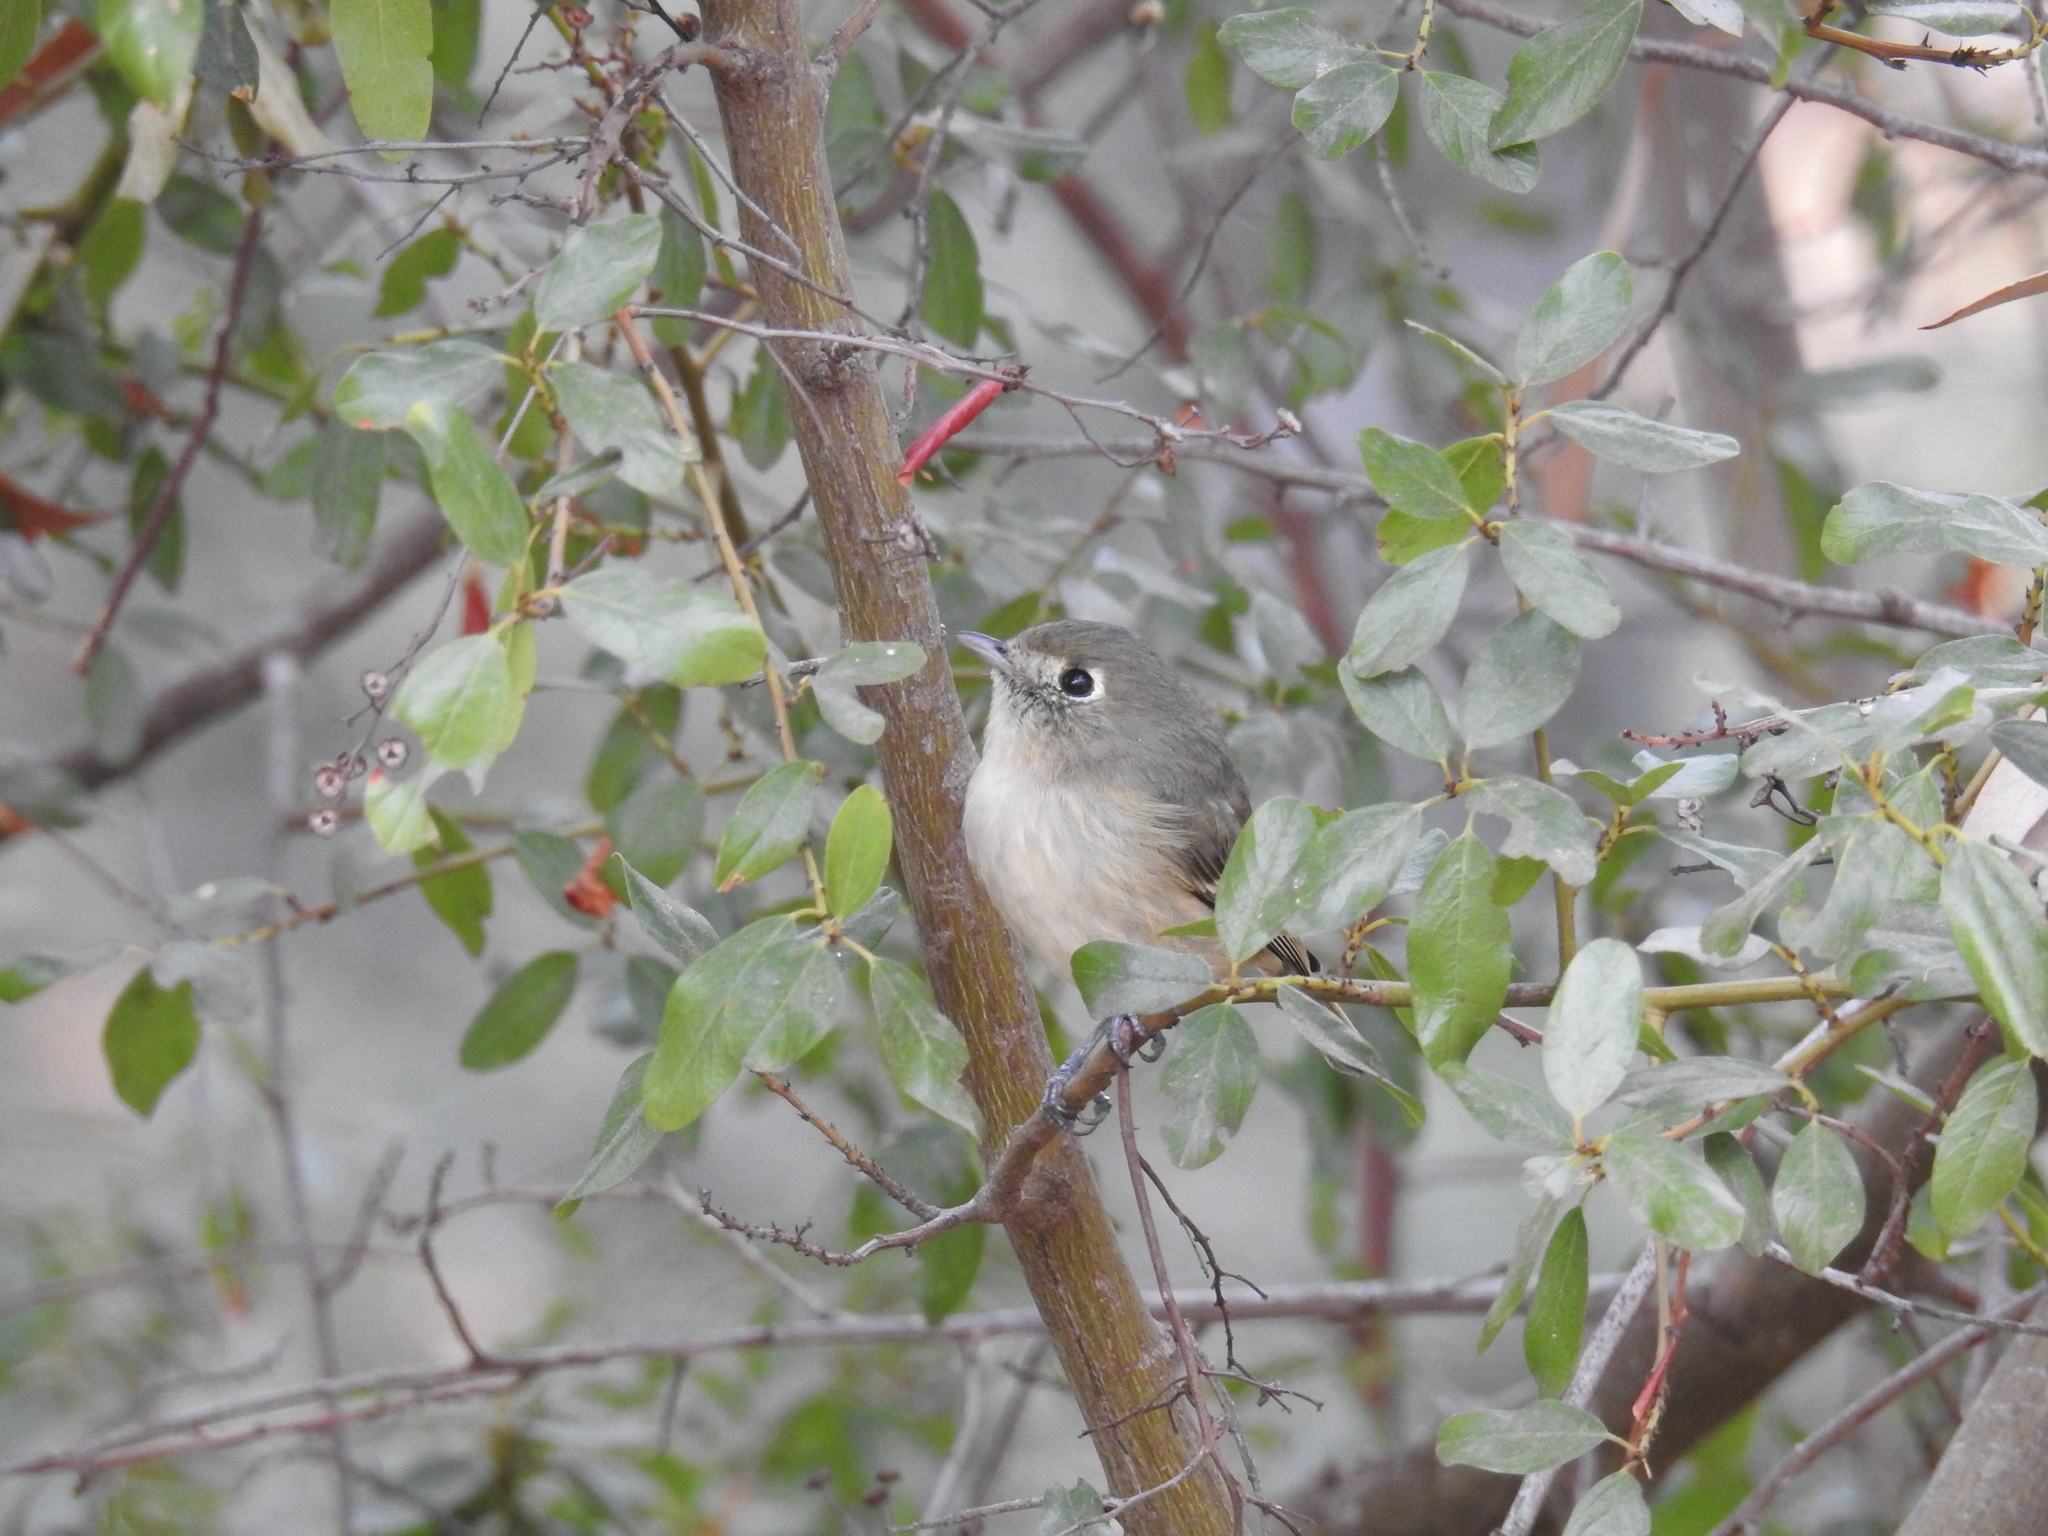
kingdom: Animalia
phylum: Chordata
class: Aves
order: Passeriformes
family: Vireonidae
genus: Vireo
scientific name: Vireo huttoni
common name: Hutton's vireo
